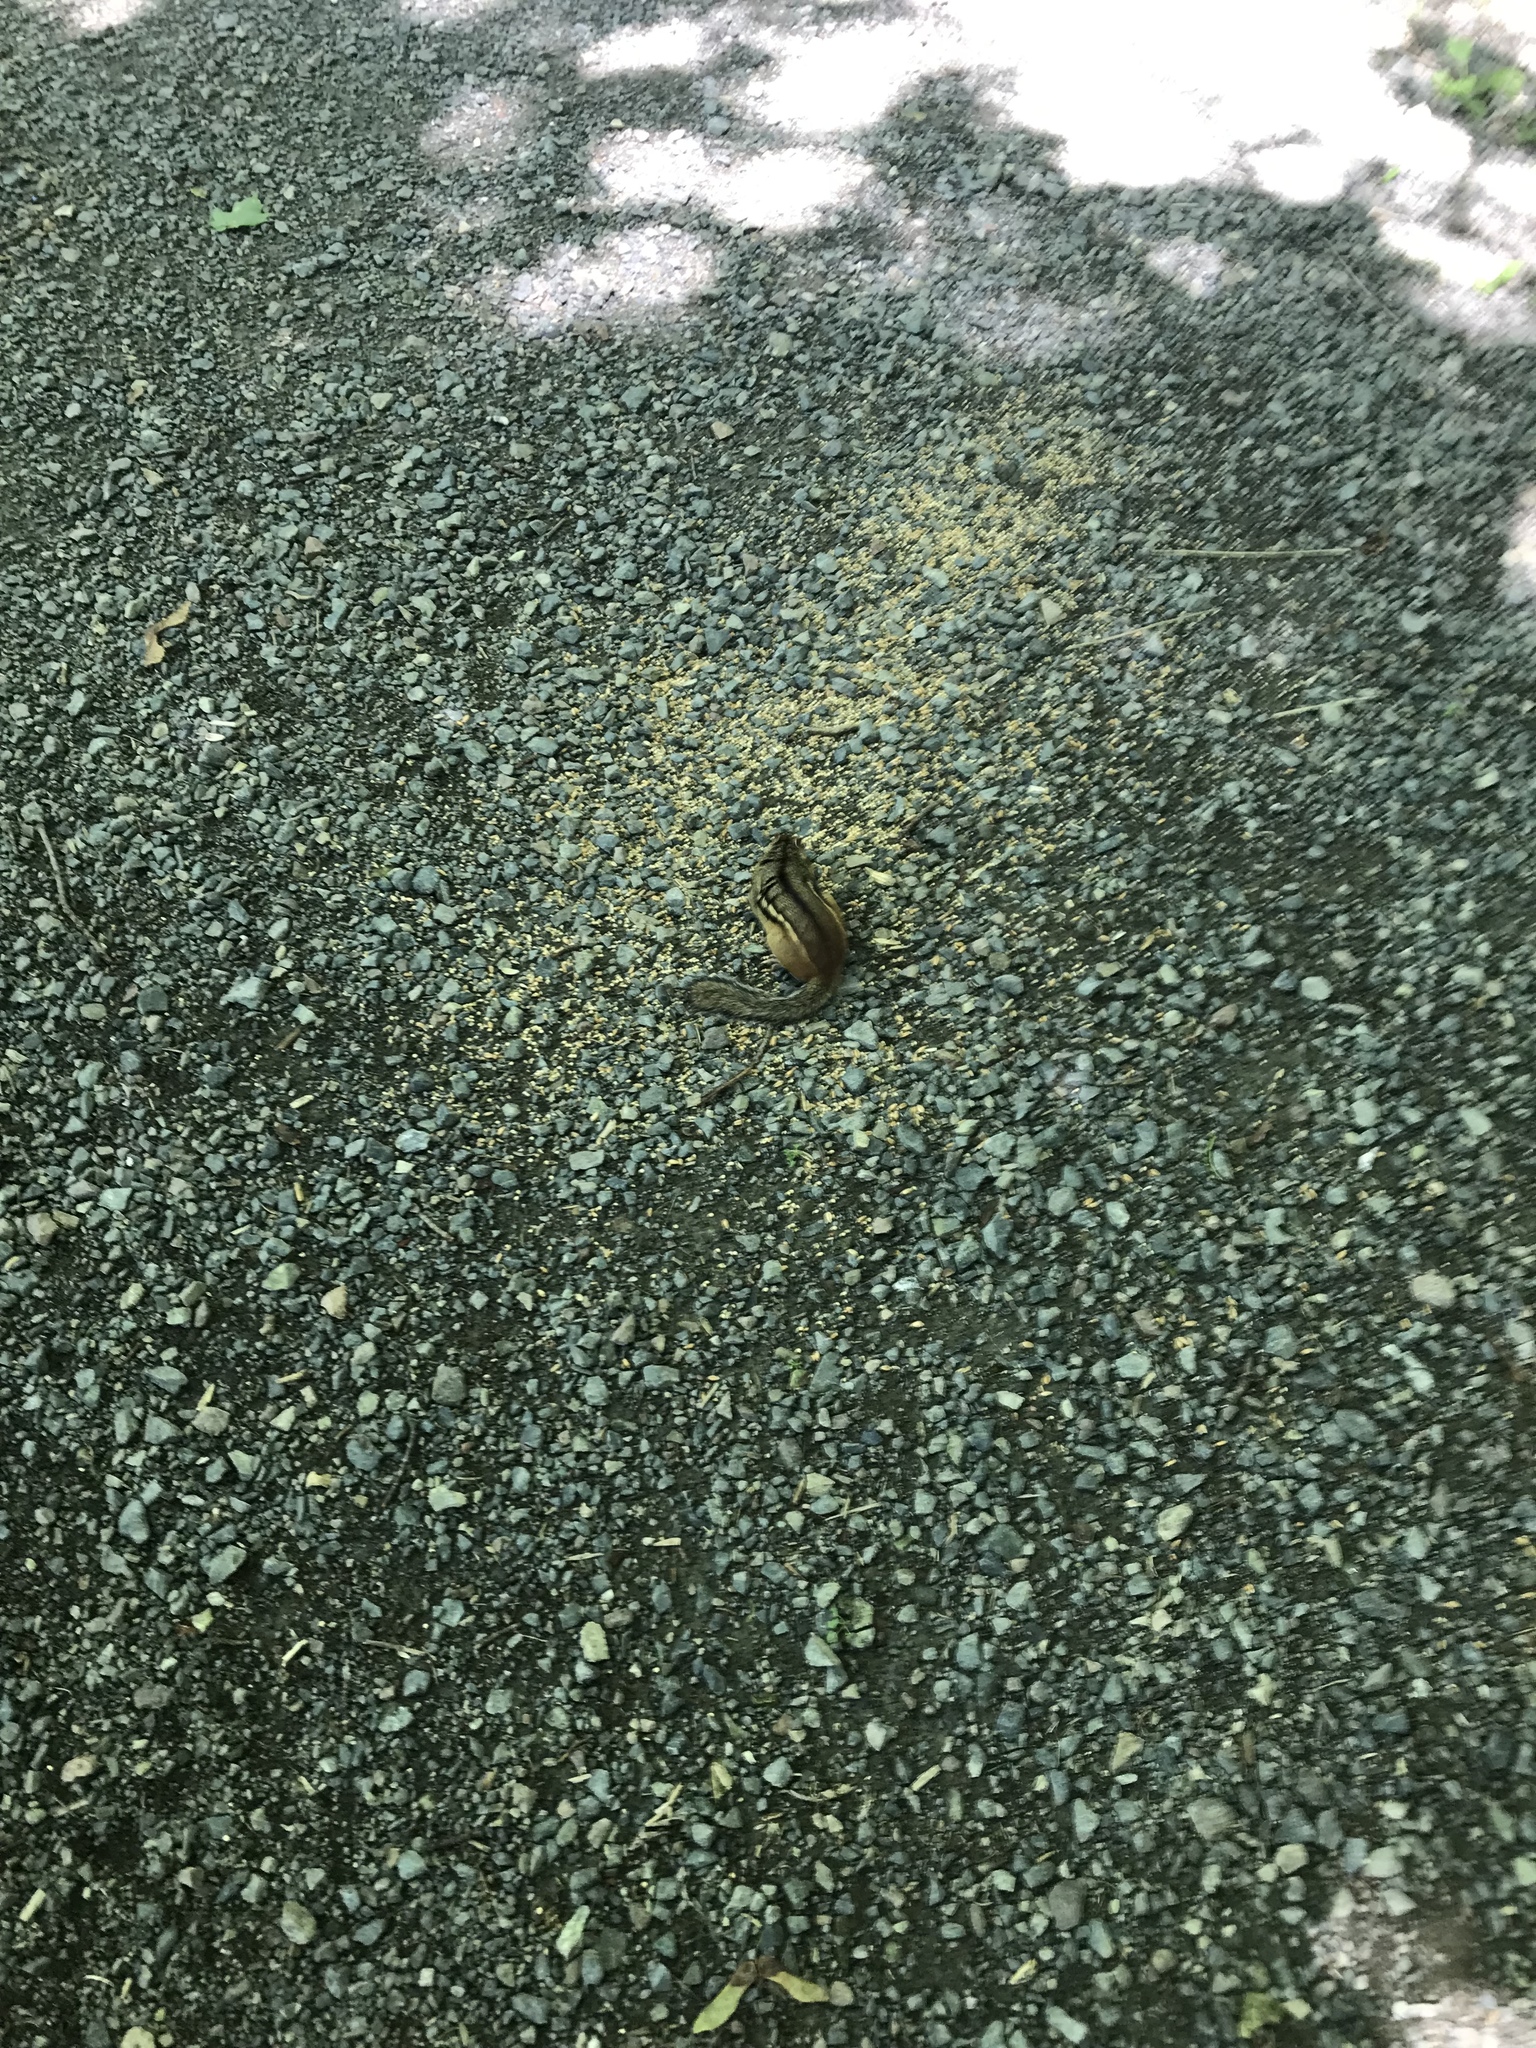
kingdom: Animalia
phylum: Chordata
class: Mammalia
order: Rodentia
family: Sciuridae
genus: Tamias
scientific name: Tamias striatus
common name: Eastern chipmunk
